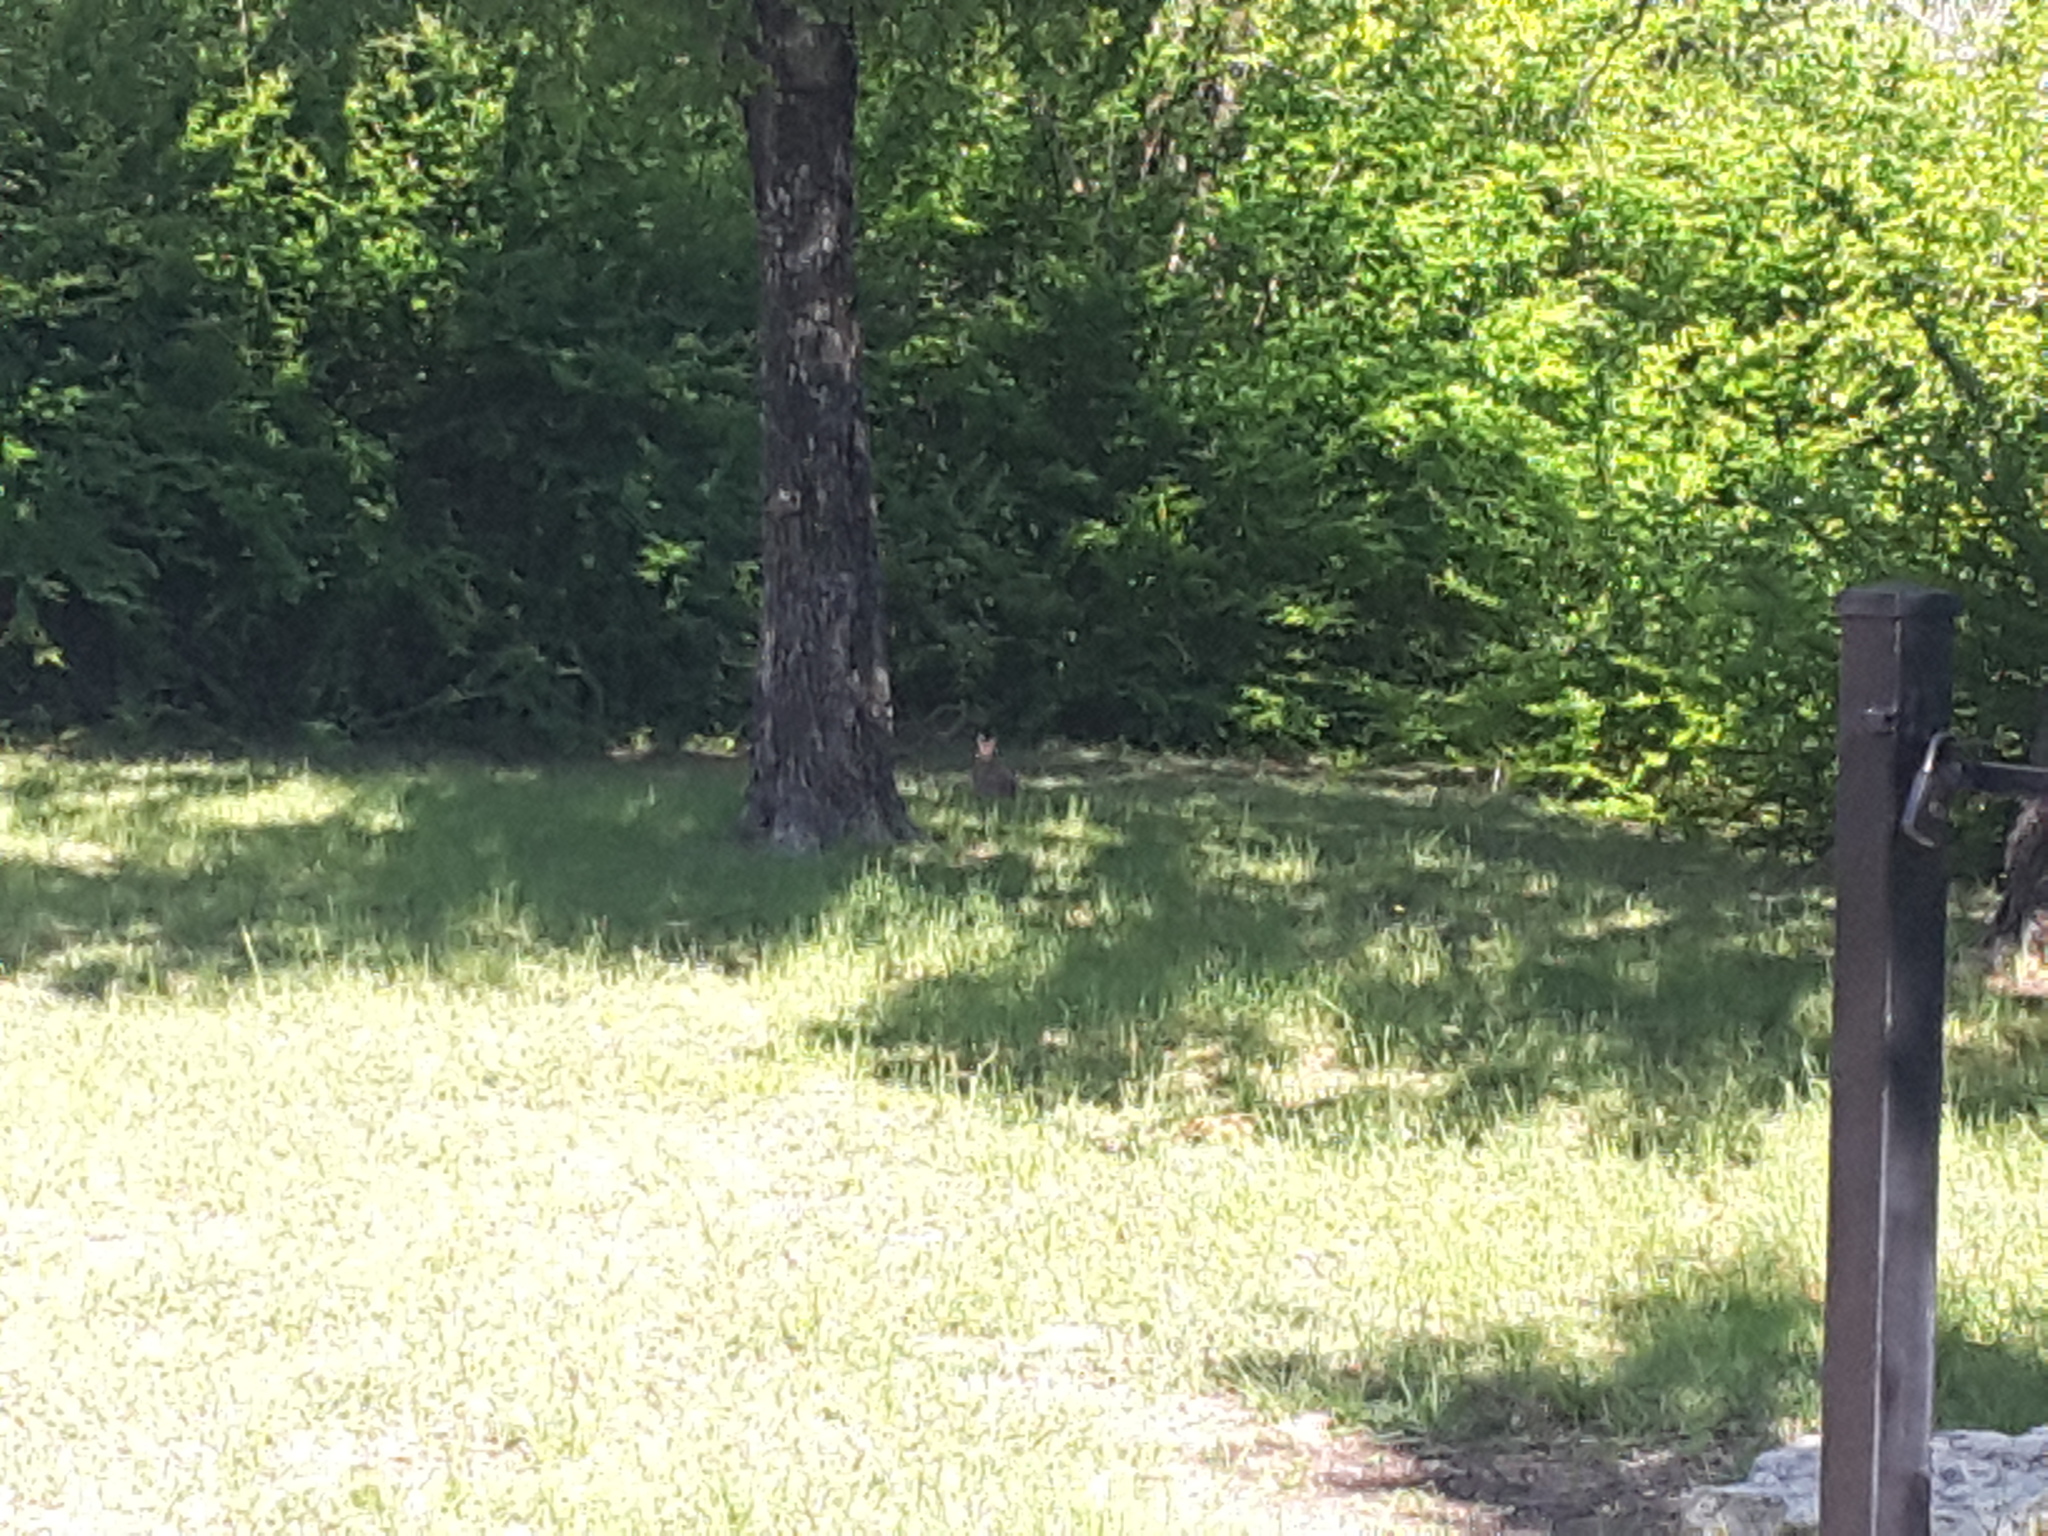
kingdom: Animalia
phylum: Chordata
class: Mammalia
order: Lagomorpha
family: Leporidae
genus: Sylvilagus
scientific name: Sylvilagus floridanus
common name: Eastern cottontail
